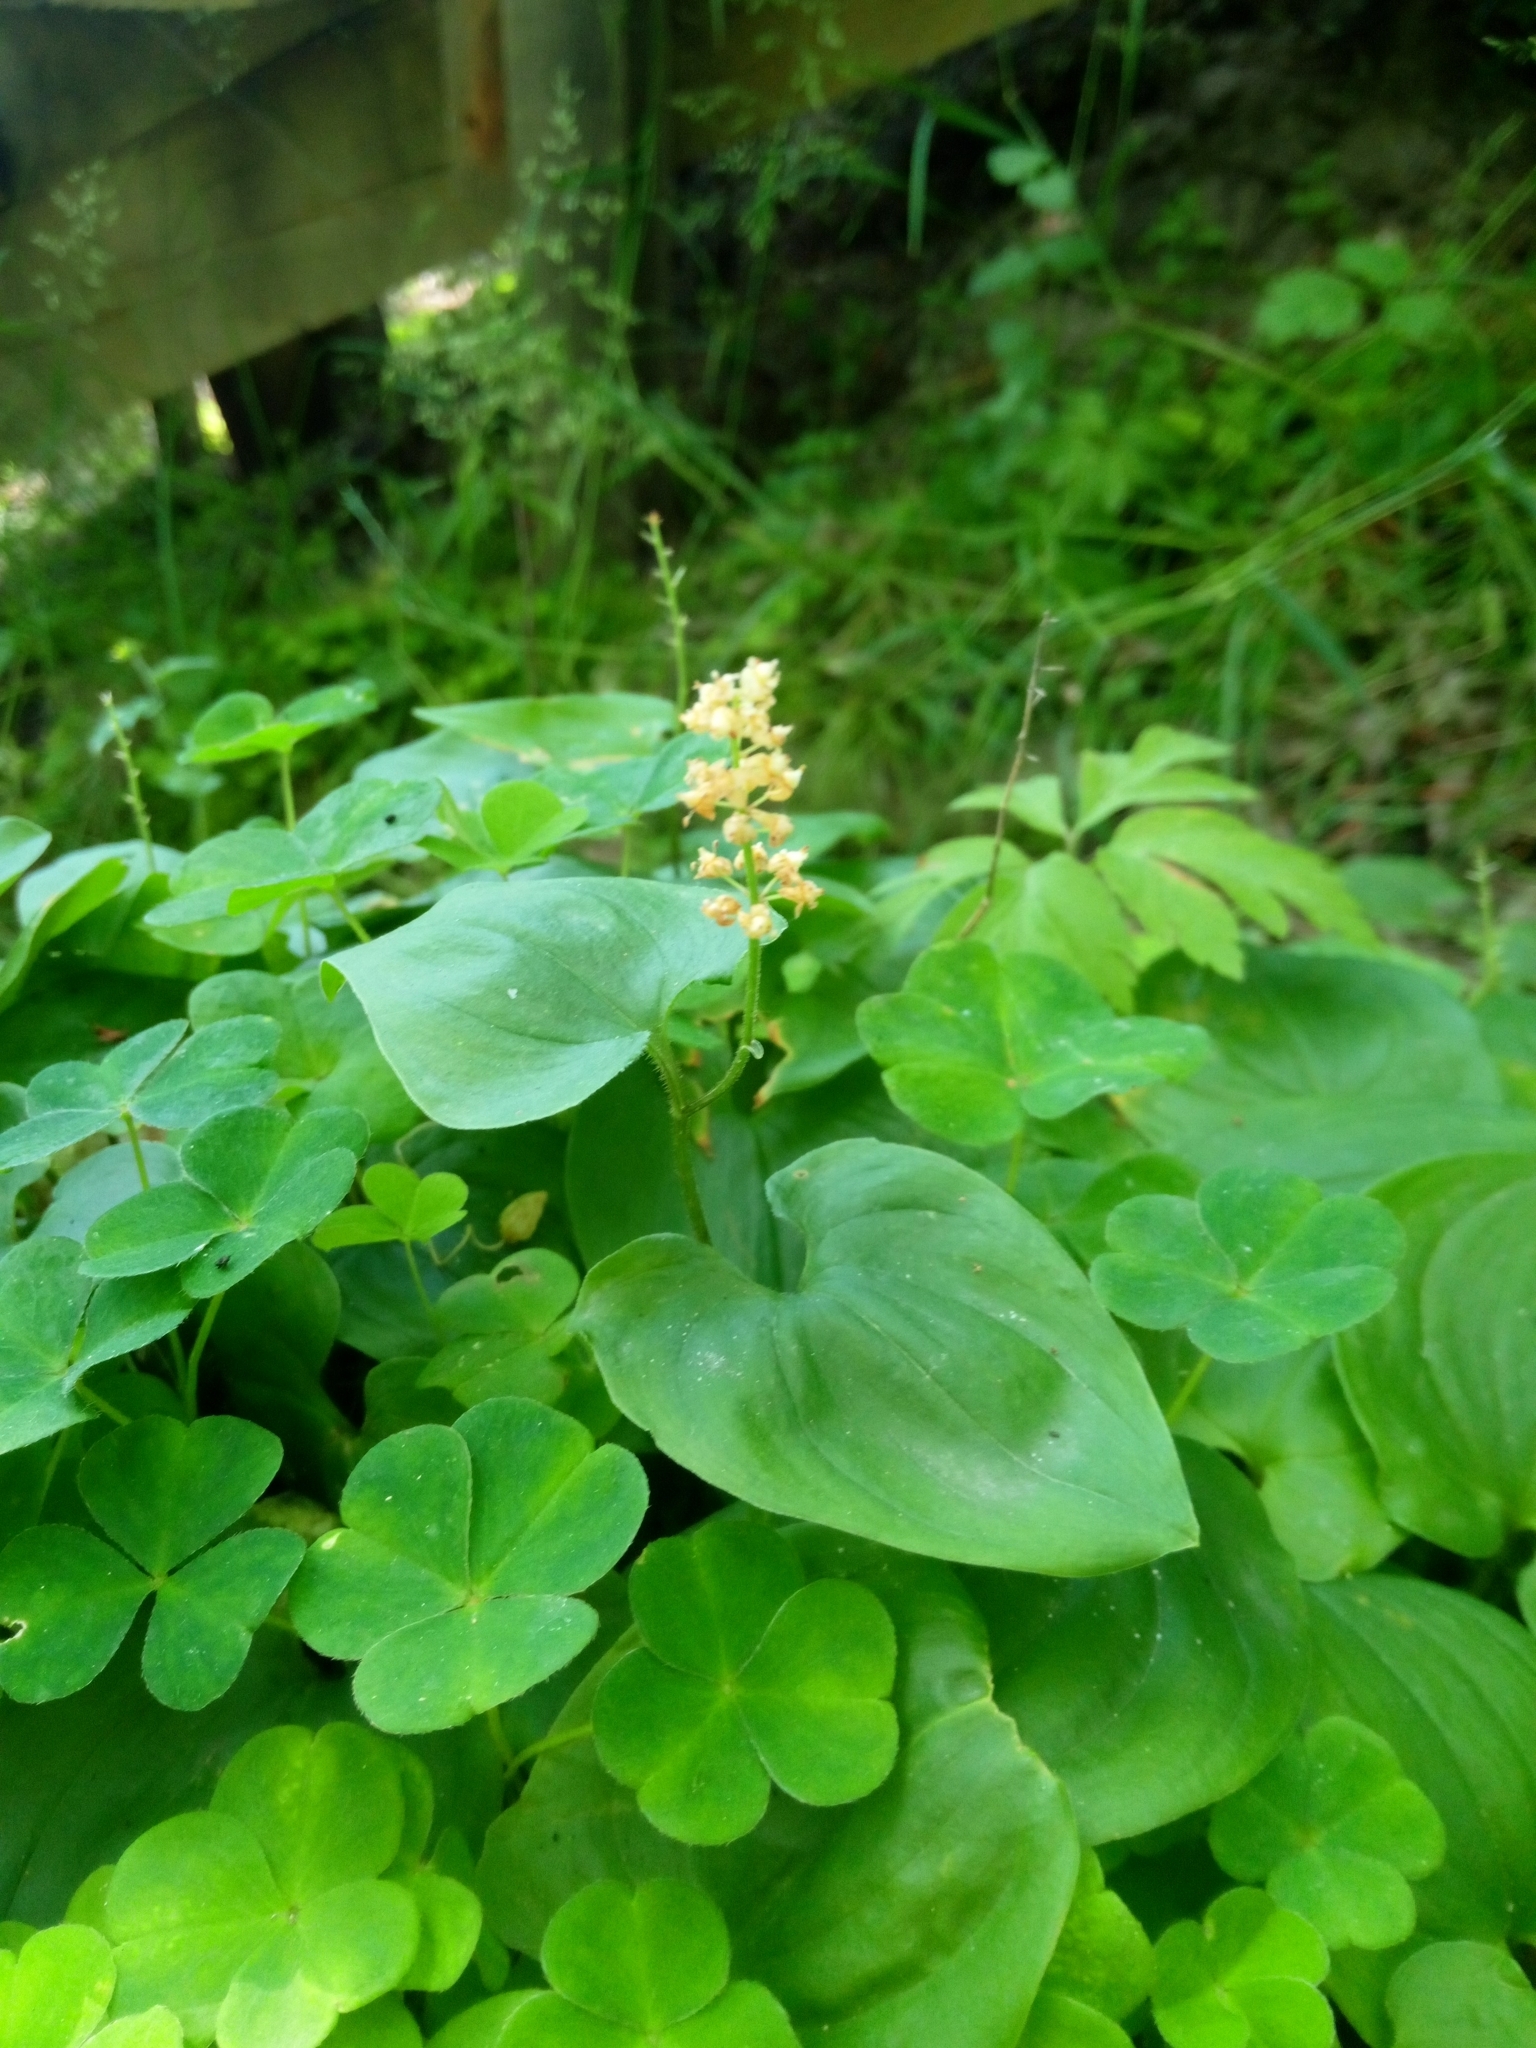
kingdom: Plantae
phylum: Tracheophyta
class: Liliopsida
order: Asparagales
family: Asparagaceae
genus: Maianthemum
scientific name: Maianthemum bifolium
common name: May lily
